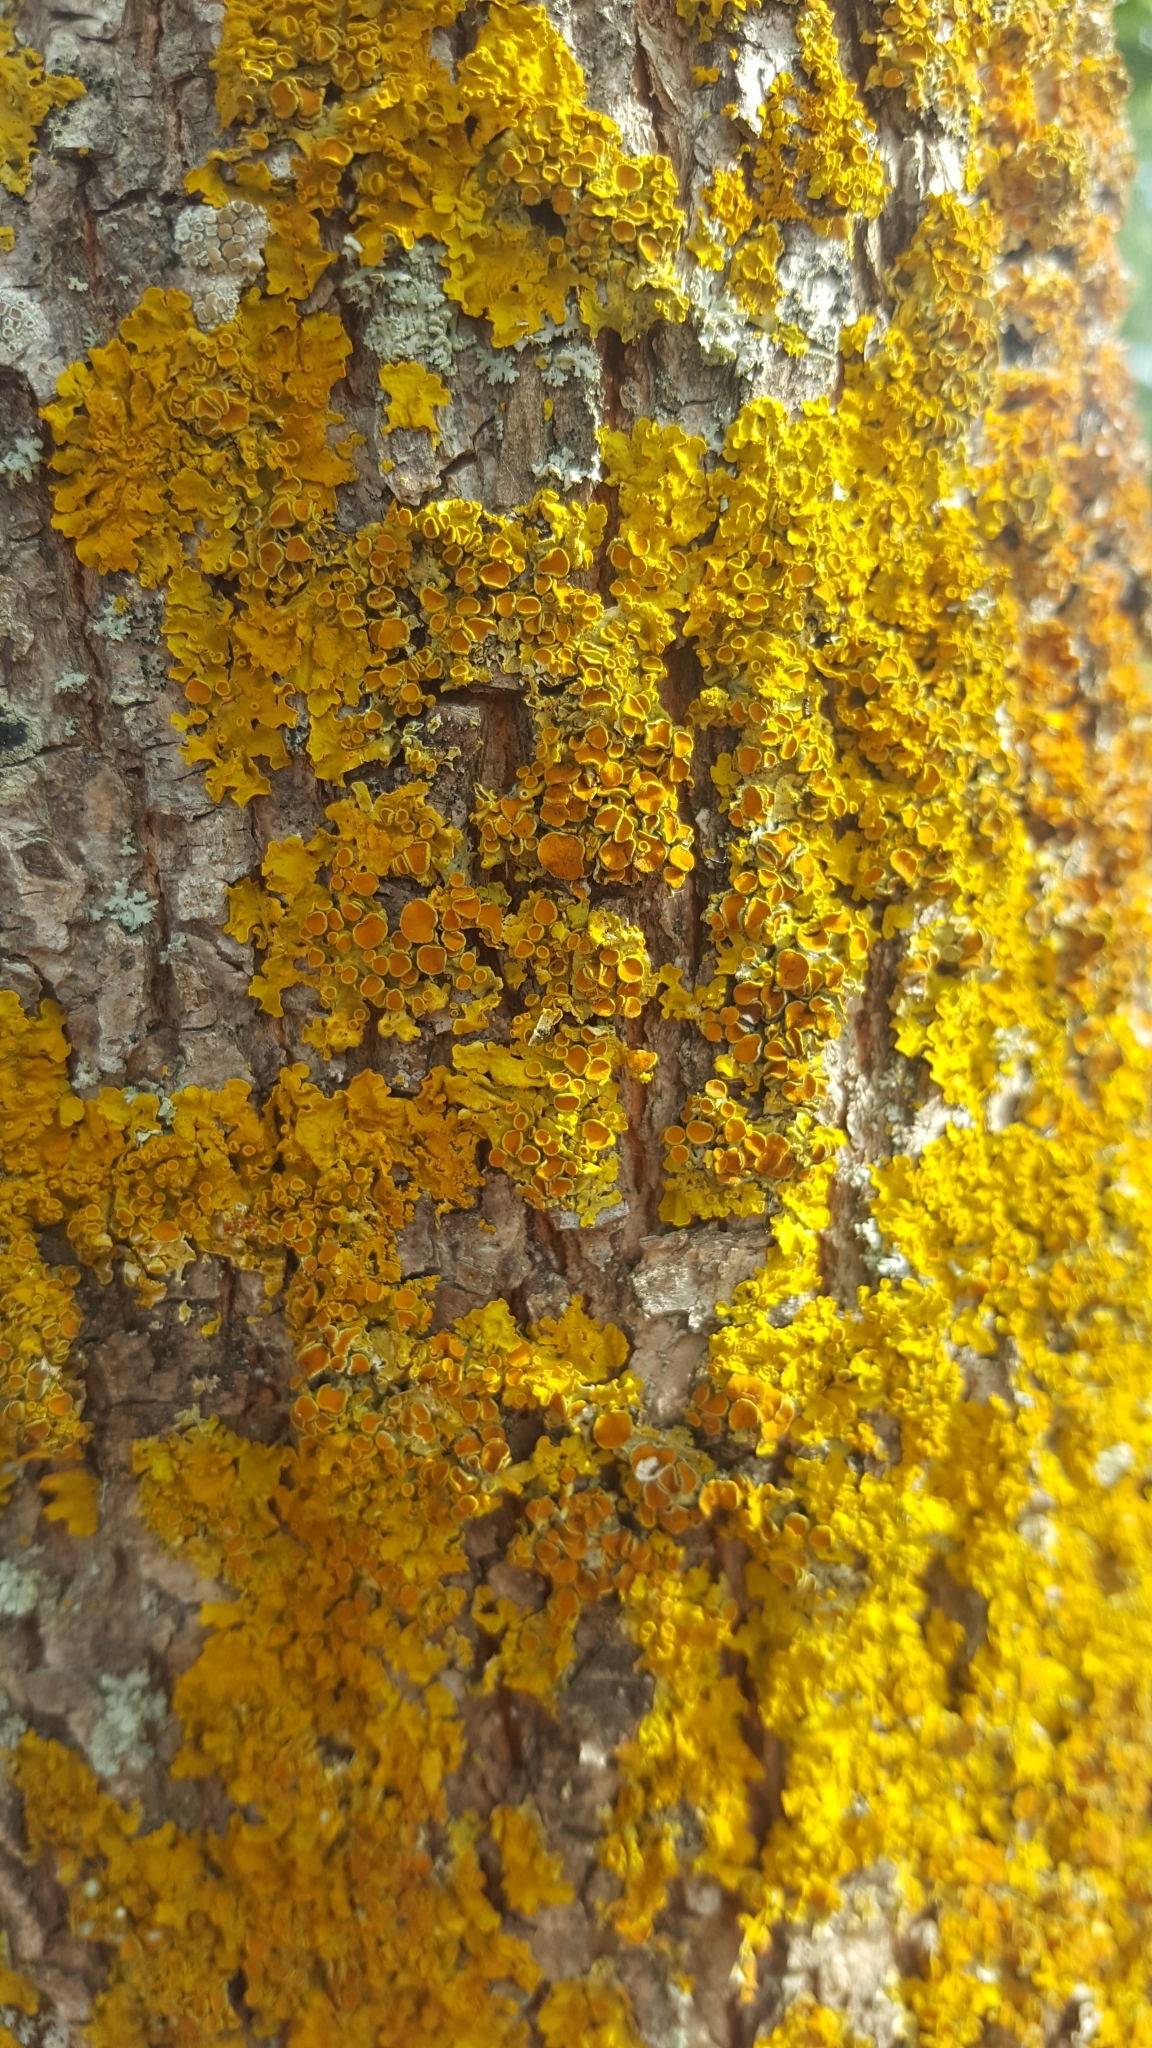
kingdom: Fungi
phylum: Ascomycota
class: Lecanoromycetes
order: Teloschistales
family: Teloschistaceae
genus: Xanthoria
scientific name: Xanthoria parietina
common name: Common orange lichen
